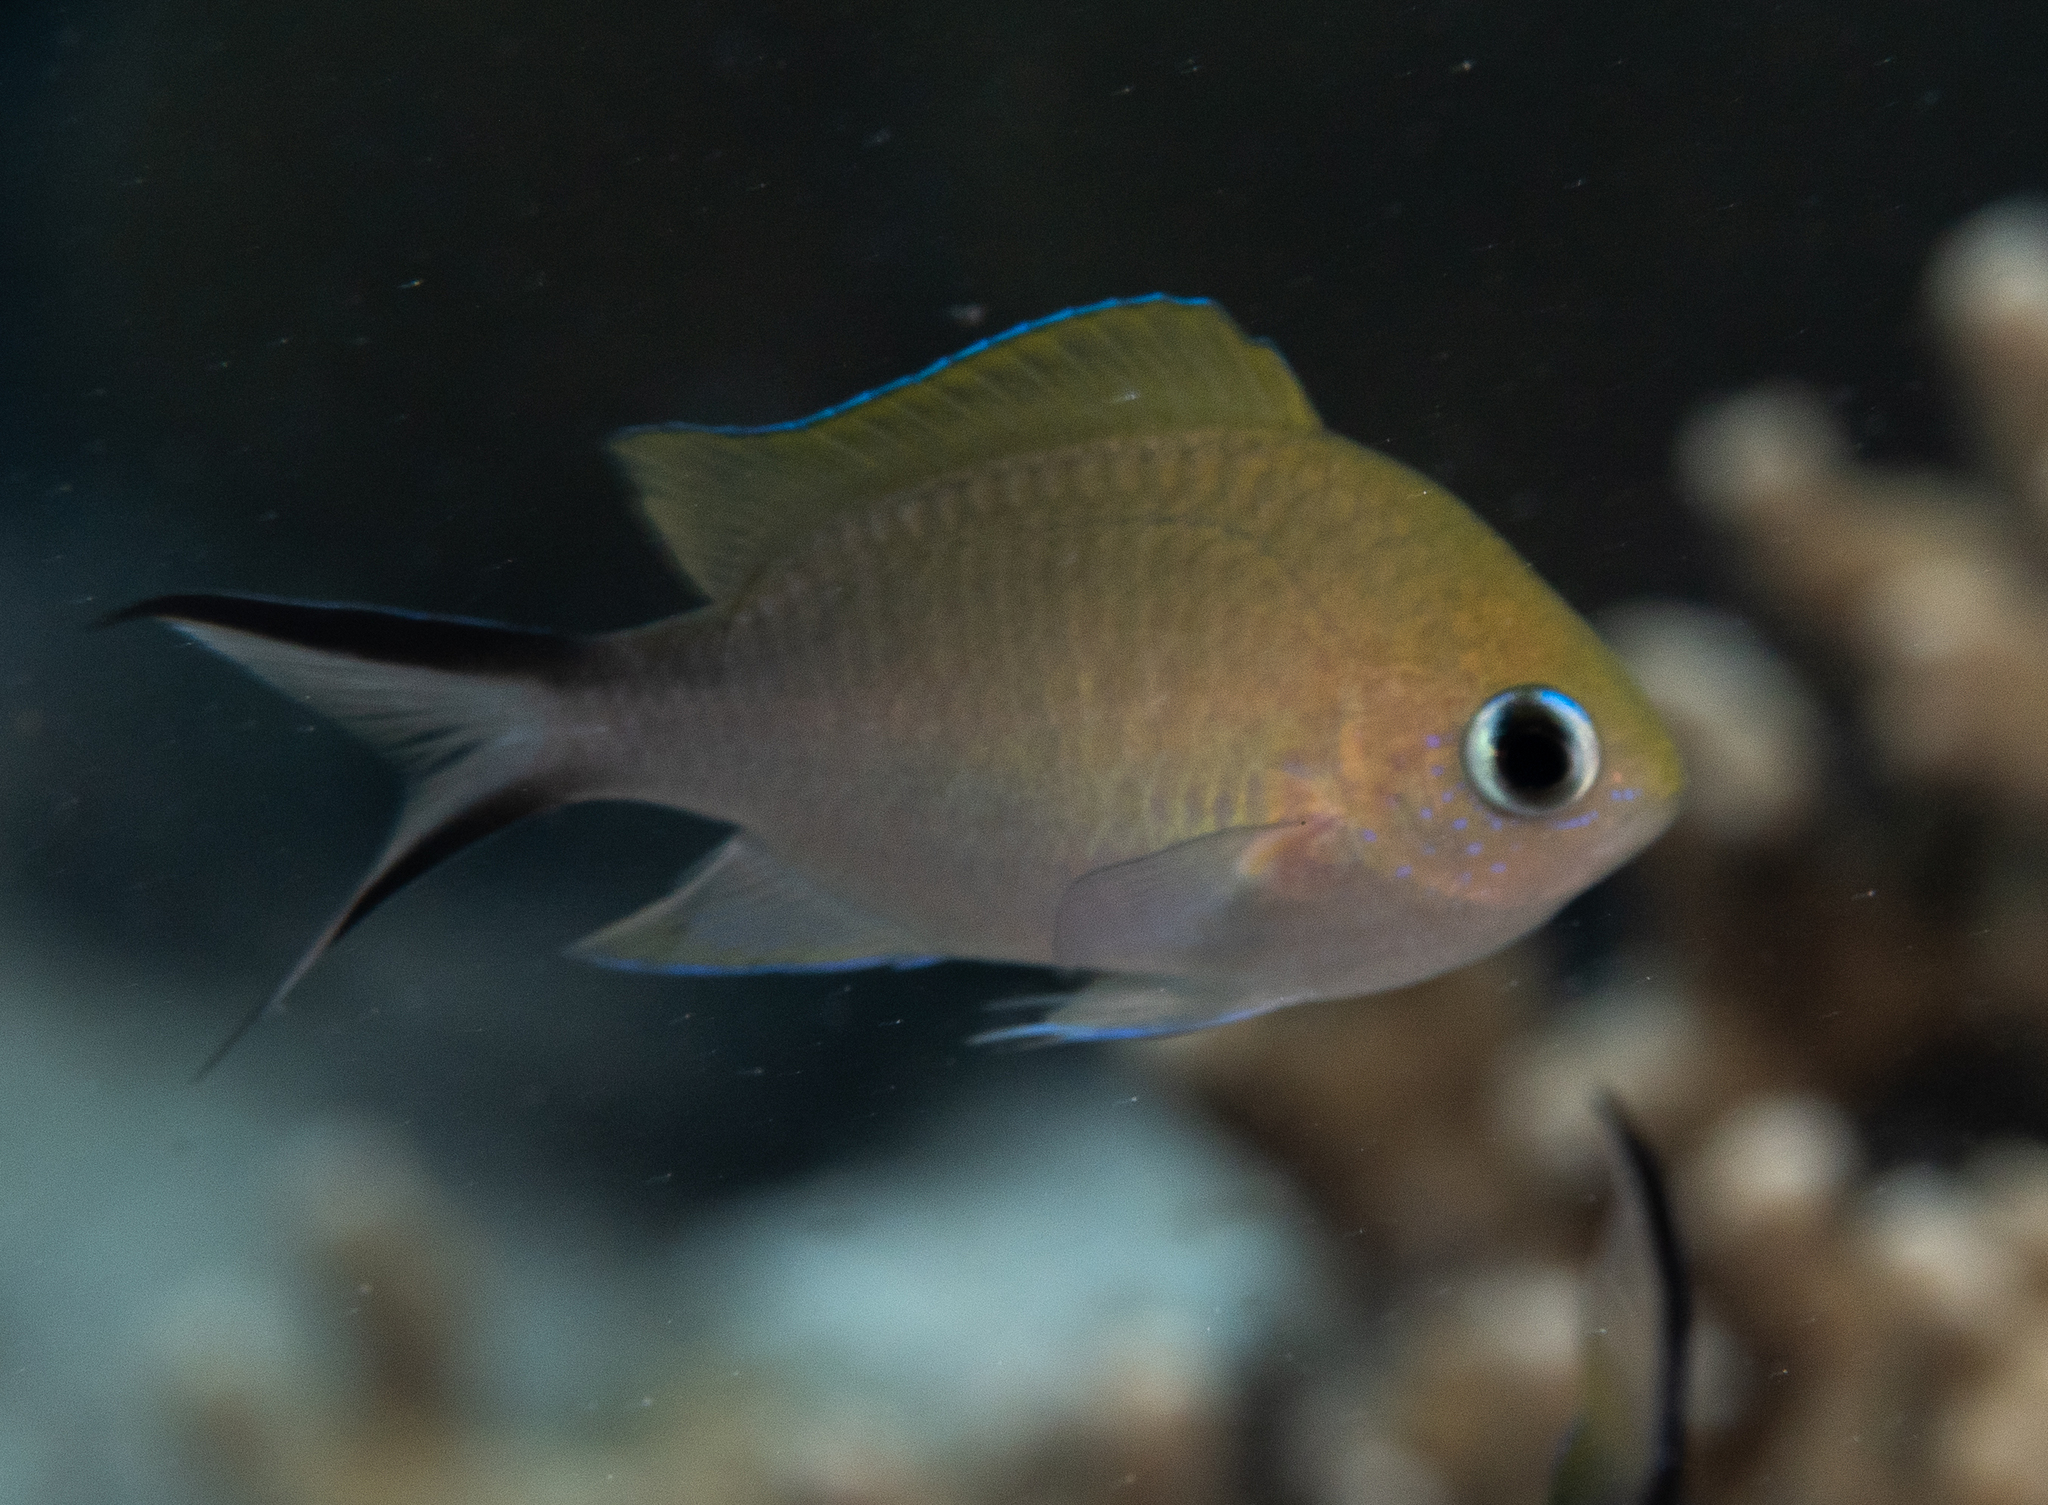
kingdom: Animalia
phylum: Chordata
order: Perciformes
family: Pomacentridae
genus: Chromis
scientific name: Chromis ternatensis
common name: Ternate chromis
